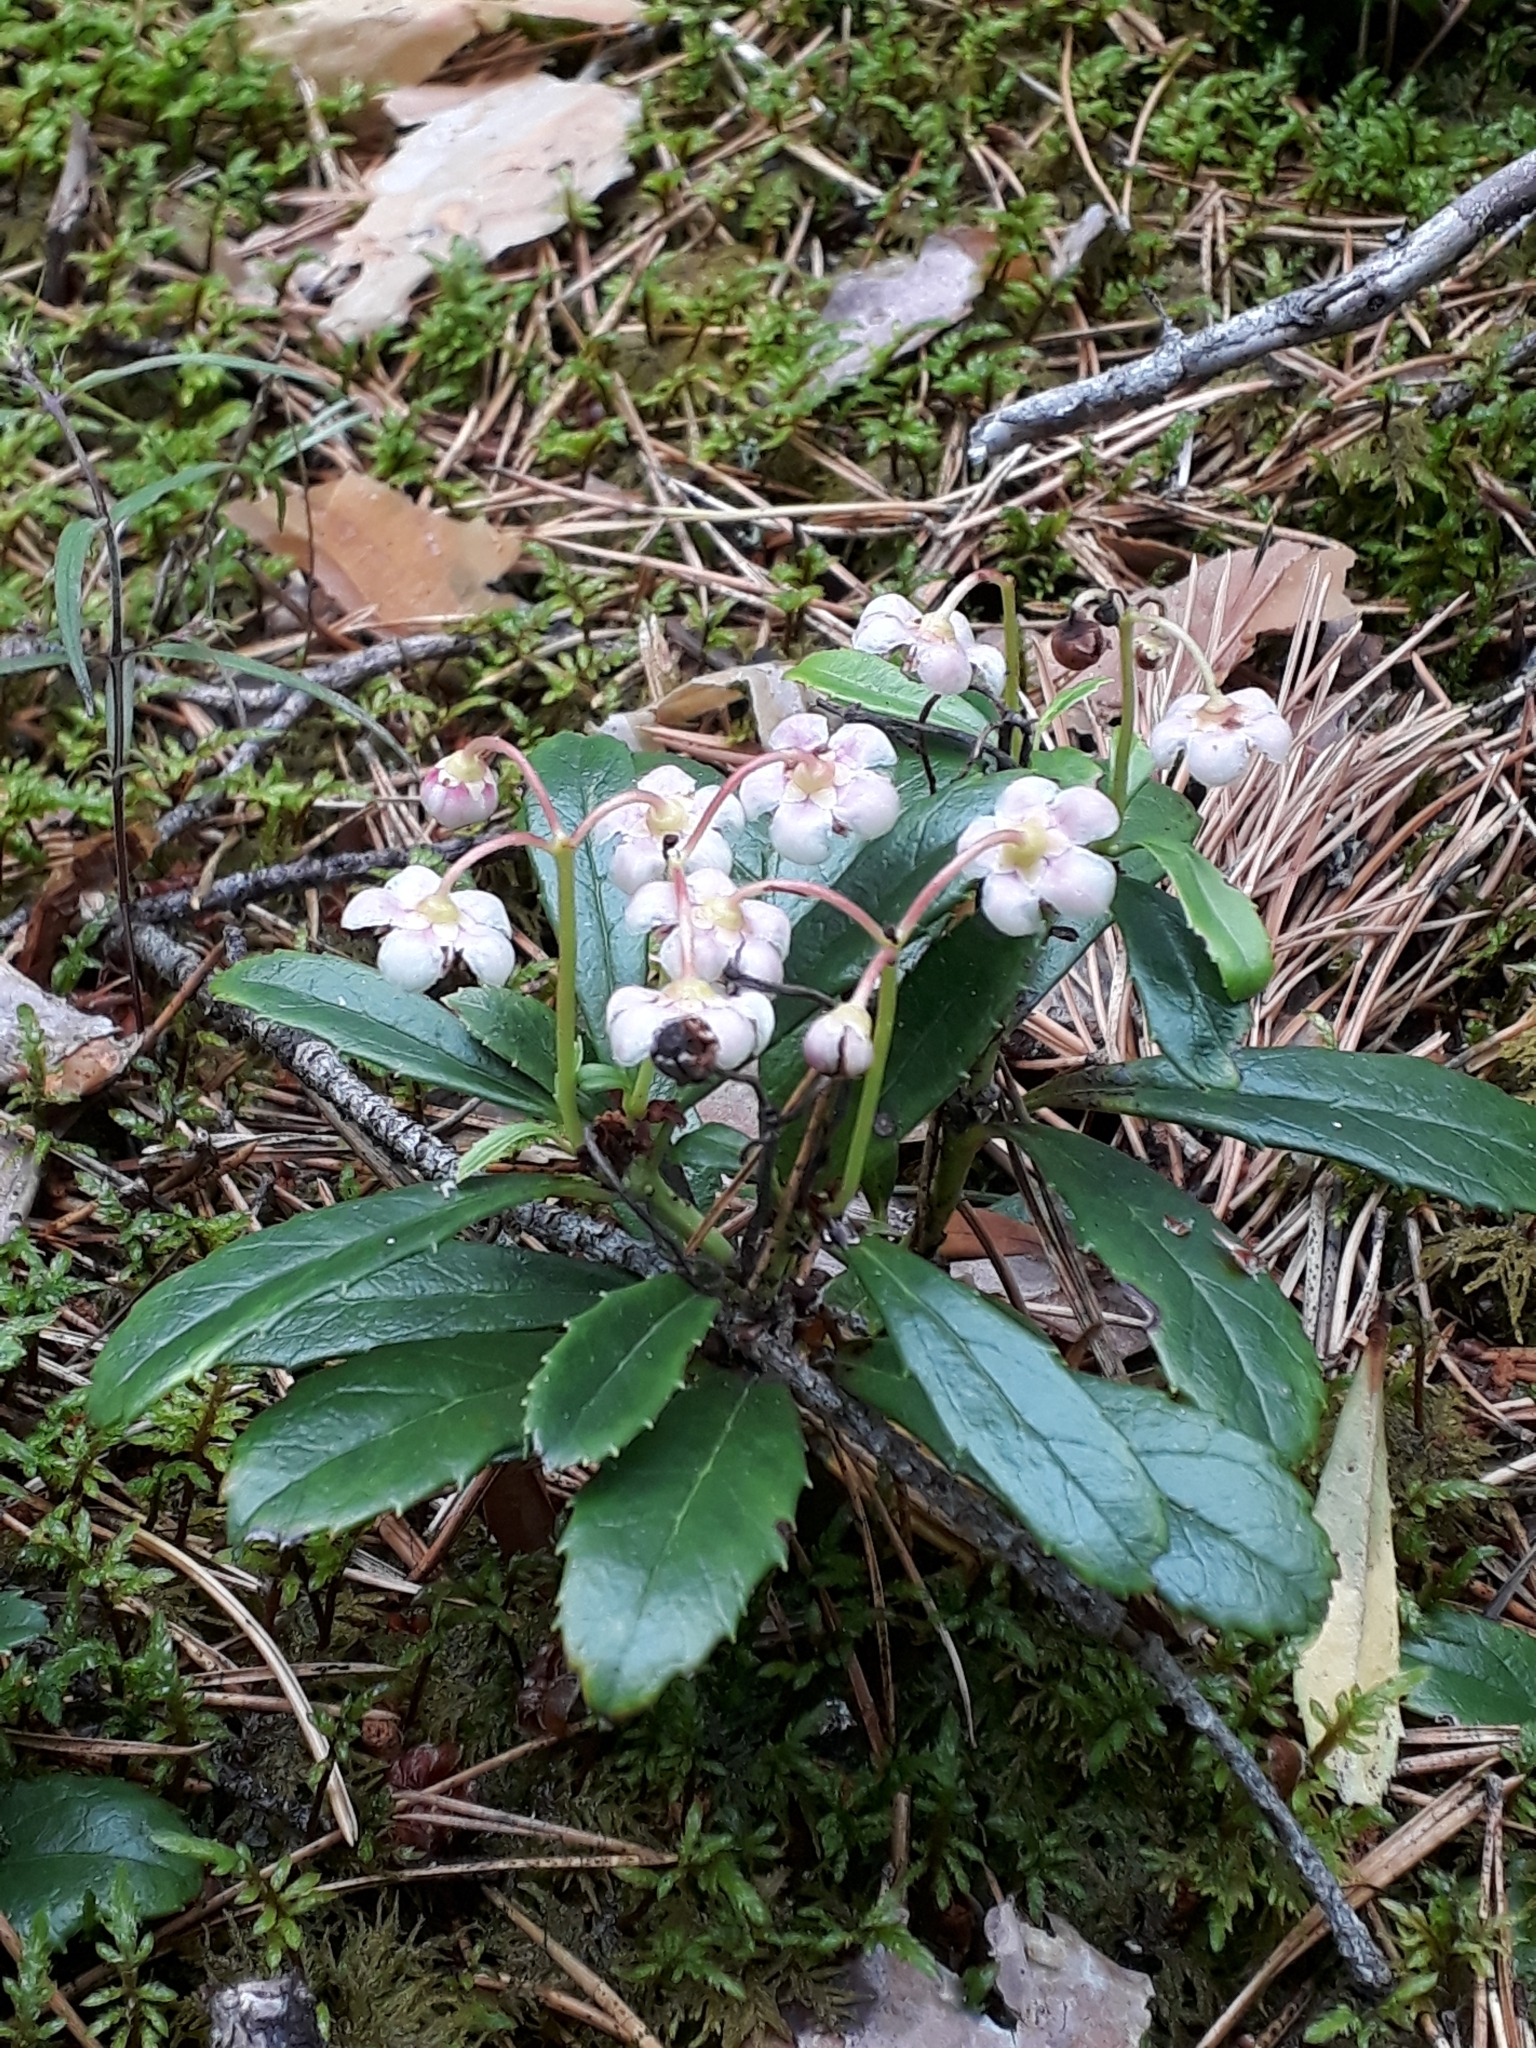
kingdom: Plantae
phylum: Tracheophyta
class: Magnoliopsida
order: Ericales
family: Ericaceae
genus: Chimaphila
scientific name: Chimaphila umbellata
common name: Pipsissewa
